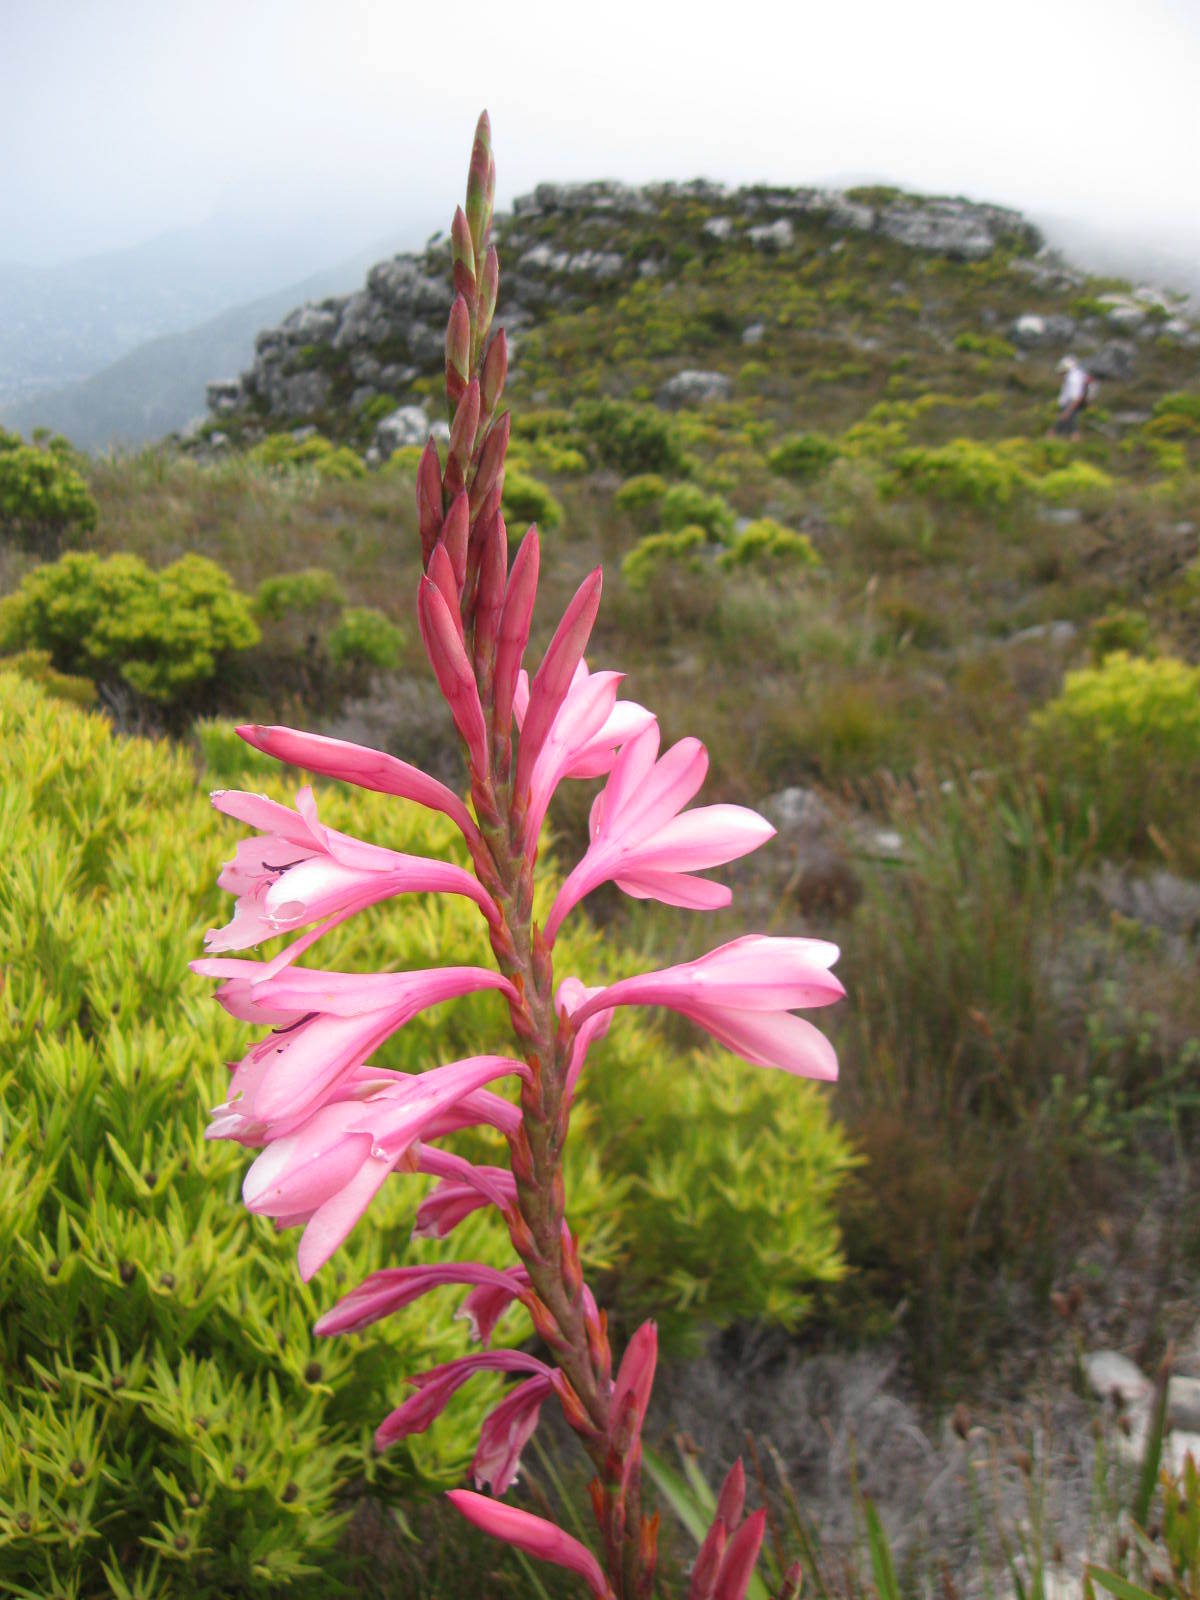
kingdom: Plantae
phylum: Tracheophyta
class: Liliopsida
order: Asparagales
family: Iridaceae
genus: Watsonia
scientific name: Watsonia borbonica
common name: Bugle-lily
